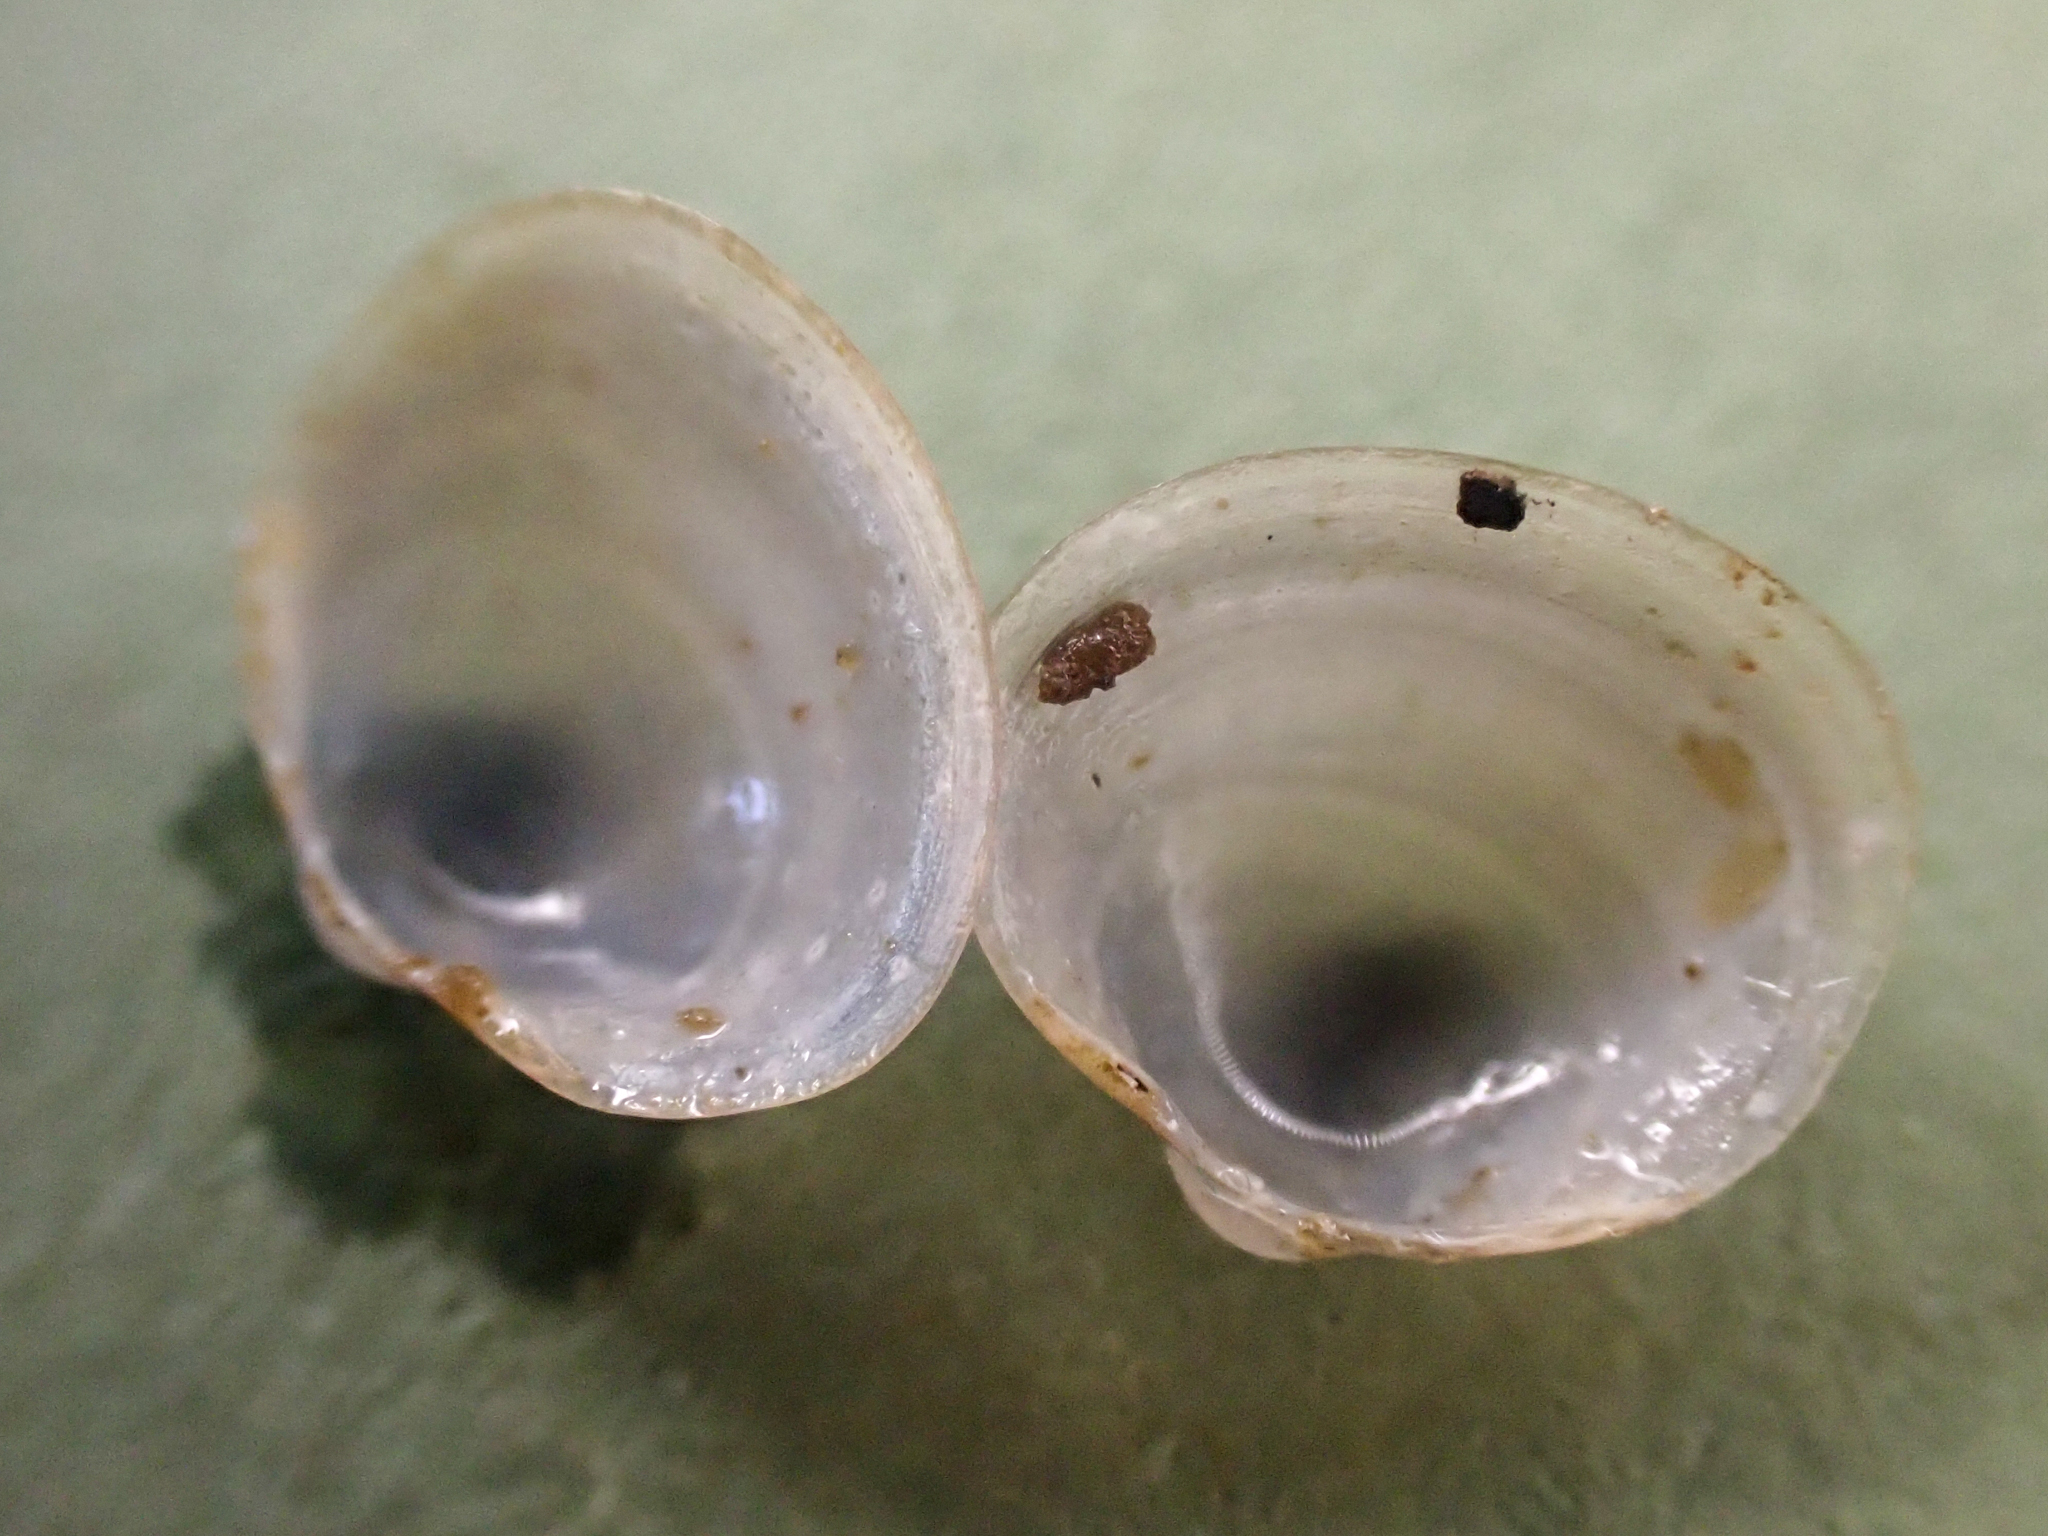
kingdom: Animalia
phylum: Mollusca
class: Bivalvia
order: Sphaeriida
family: Sphaeriidae
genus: Musculium
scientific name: Musculium lacustre
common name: Lake fingernailclam
